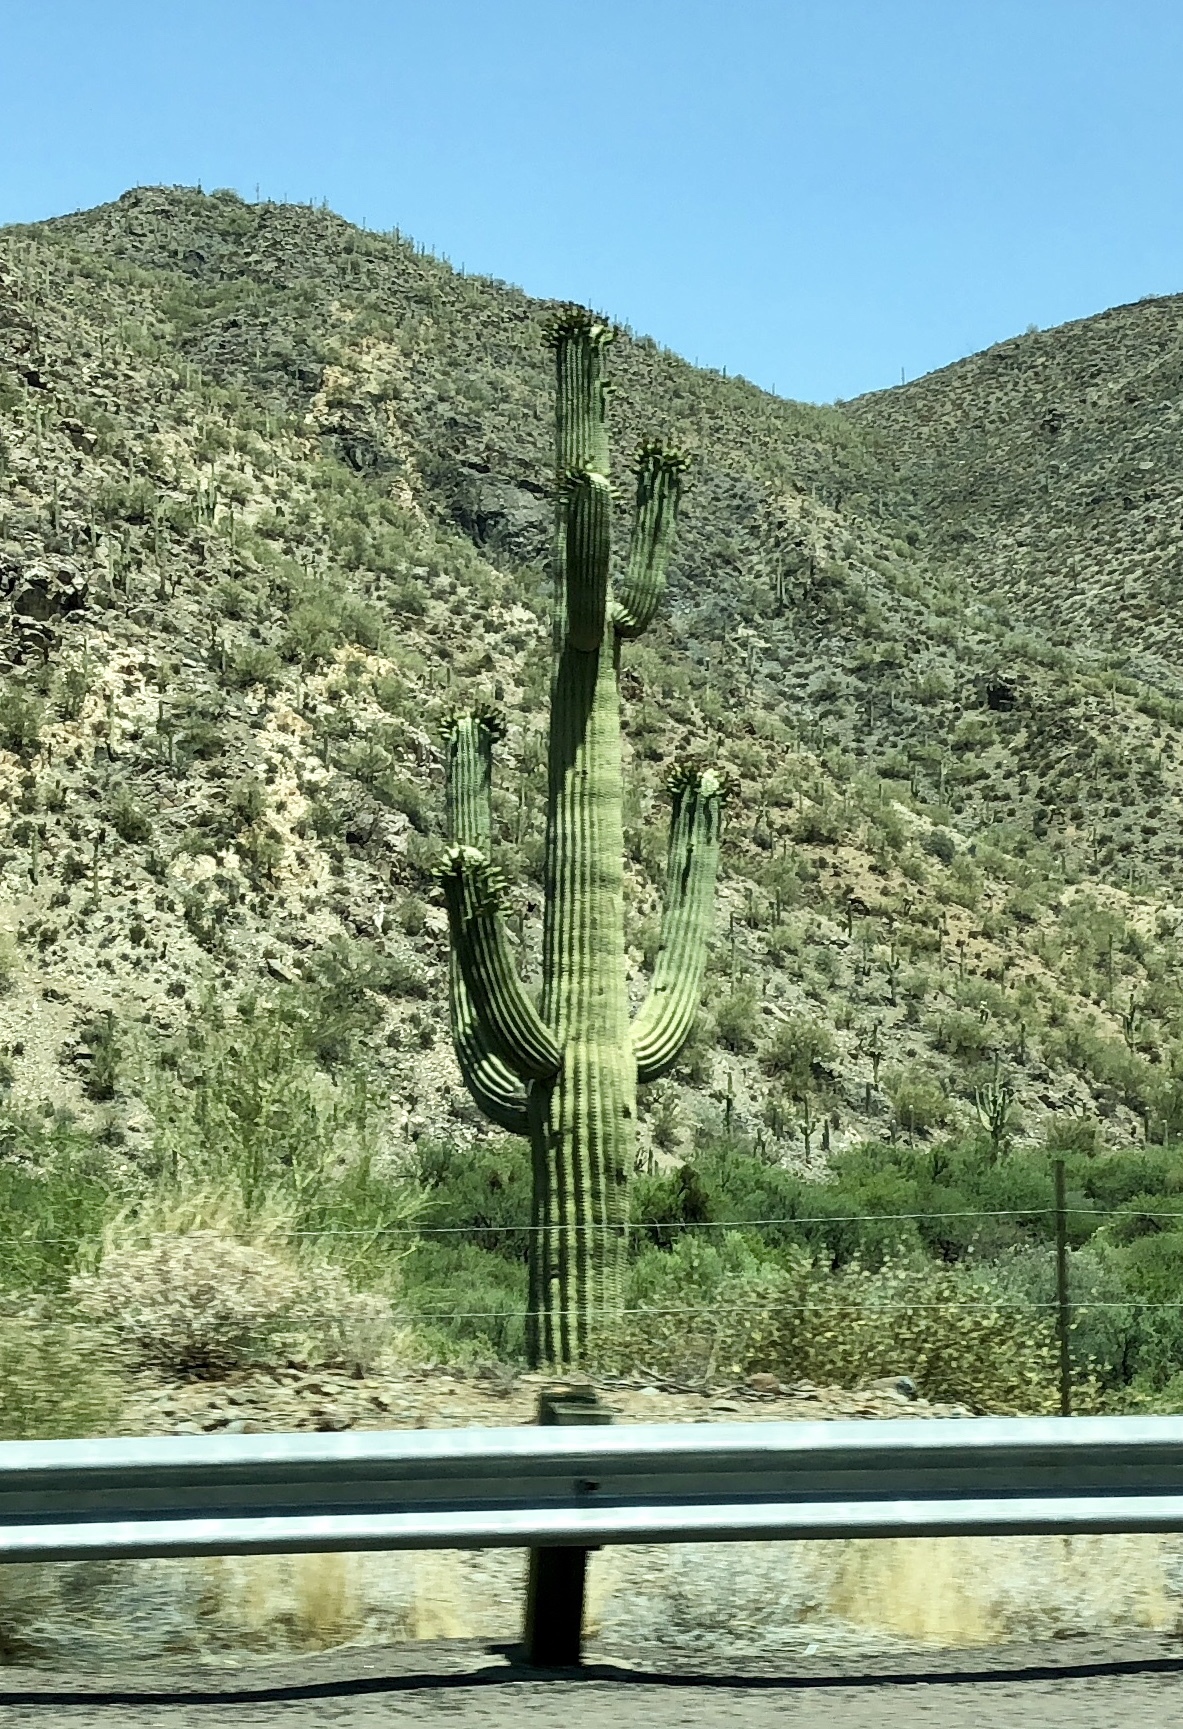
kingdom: Plantae
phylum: Tracheophyta
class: Magnoliopsida
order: Caryophyllales
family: Cactaceae
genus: Carnegiea
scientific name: Carnegiea gigantea
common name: Saguaro
